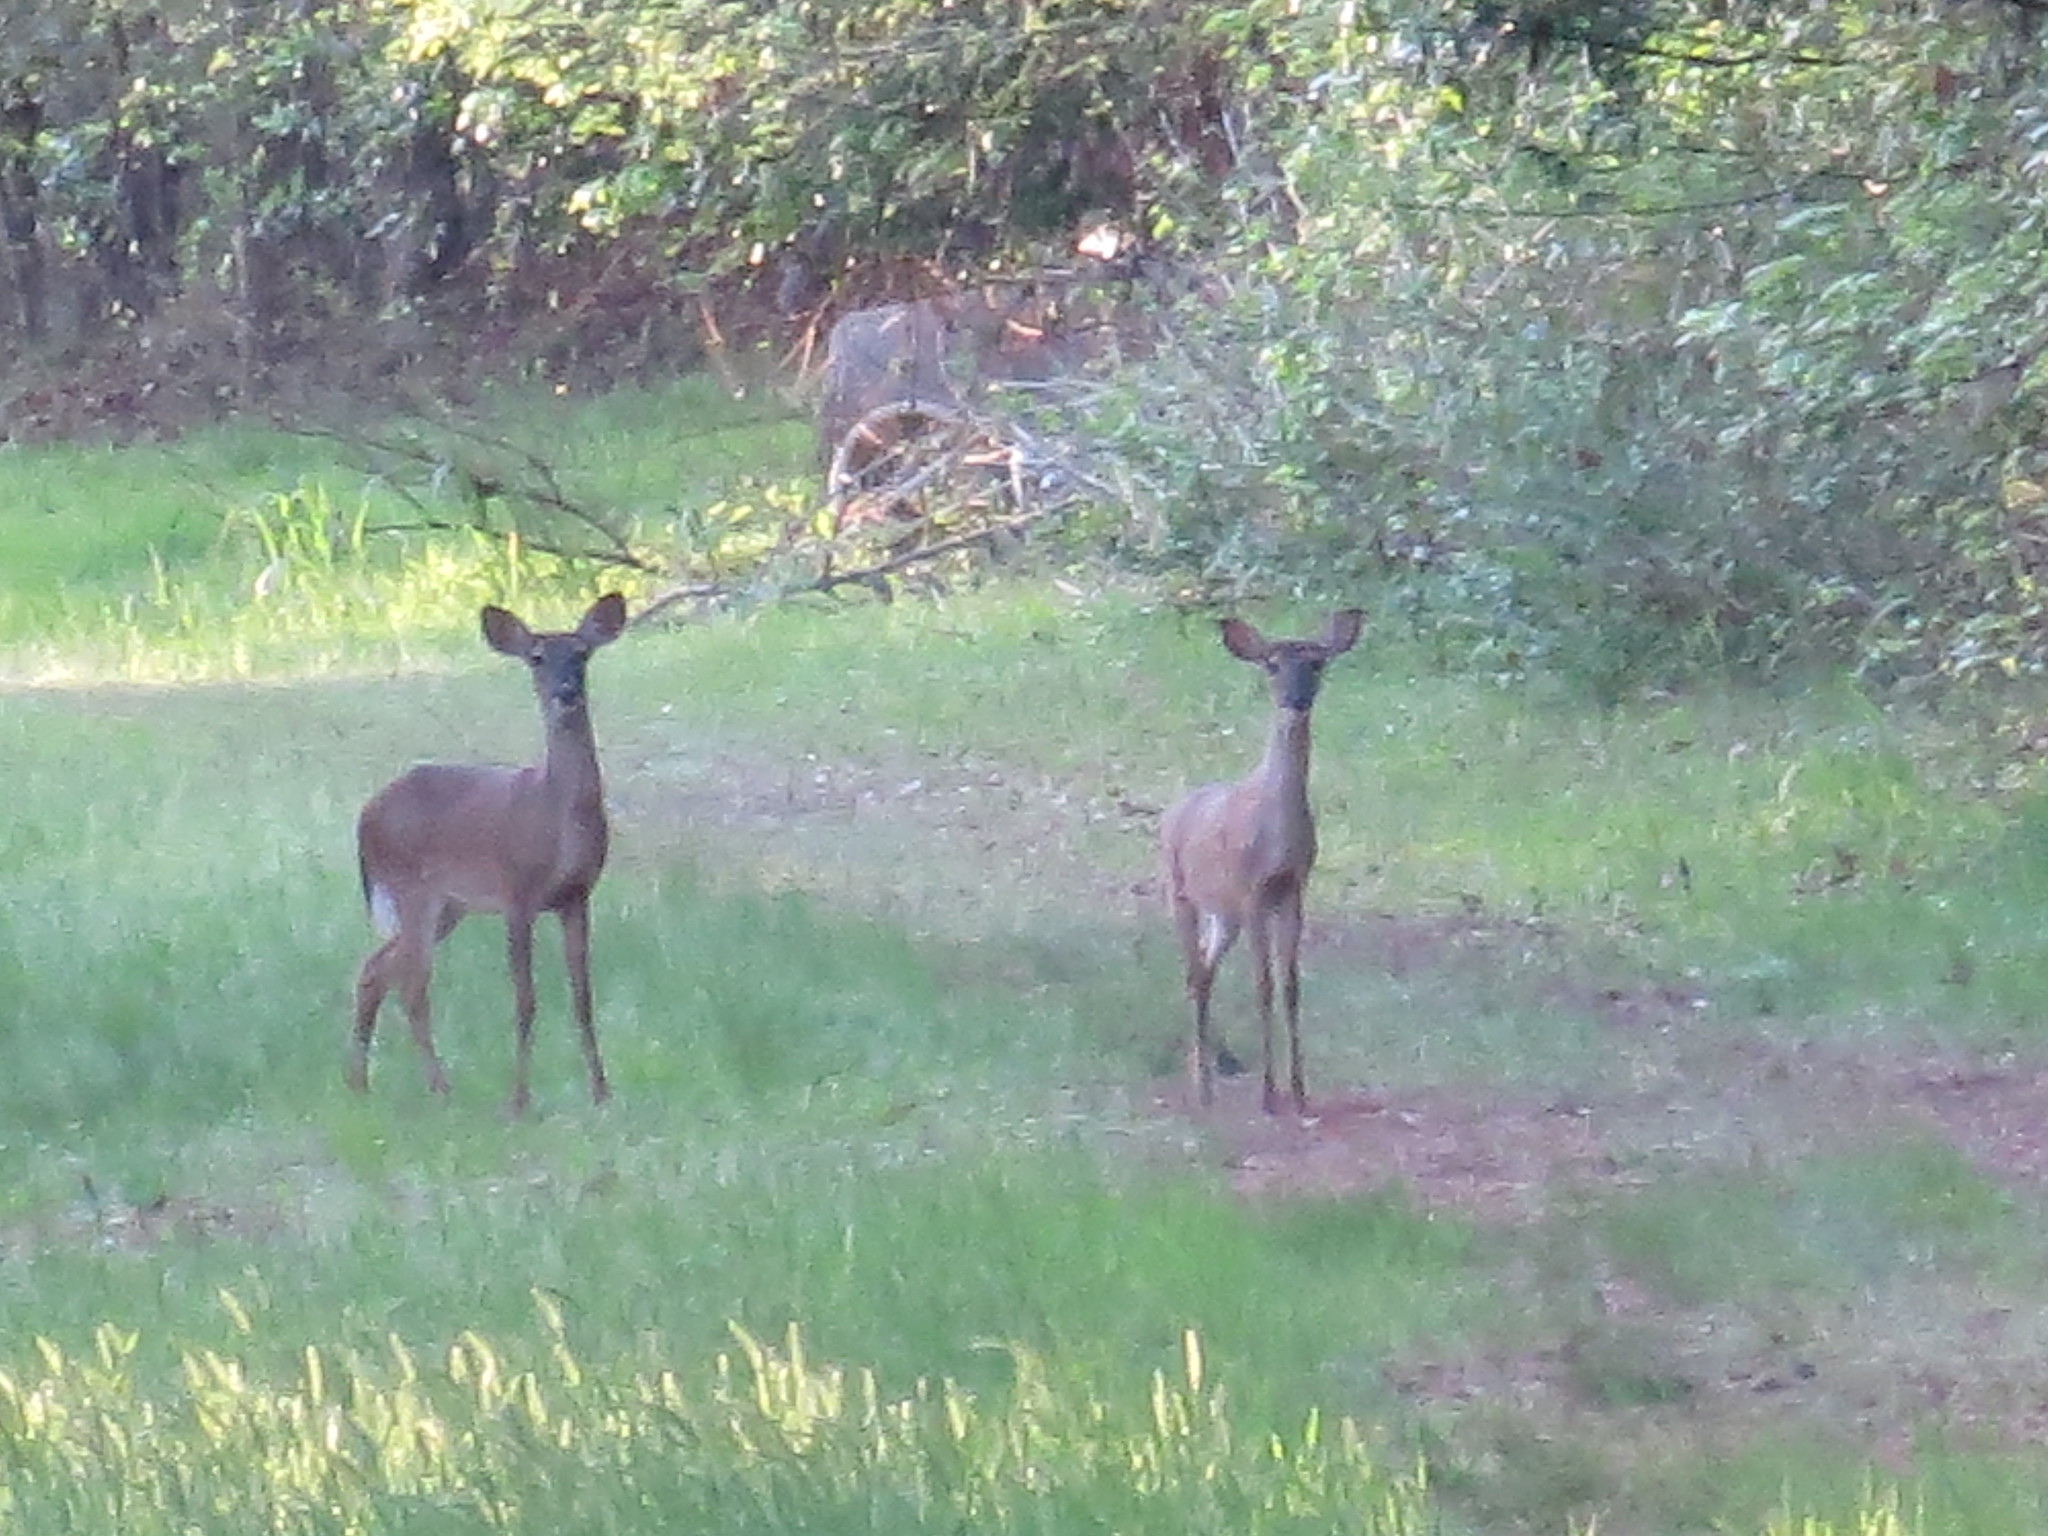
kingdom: Animalia
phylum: Chordata
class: Mammalia
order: Artiodactyla
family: Cervidae
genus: Odocoileus
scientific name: Odocoileus virginianus
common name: White-tailed deer
